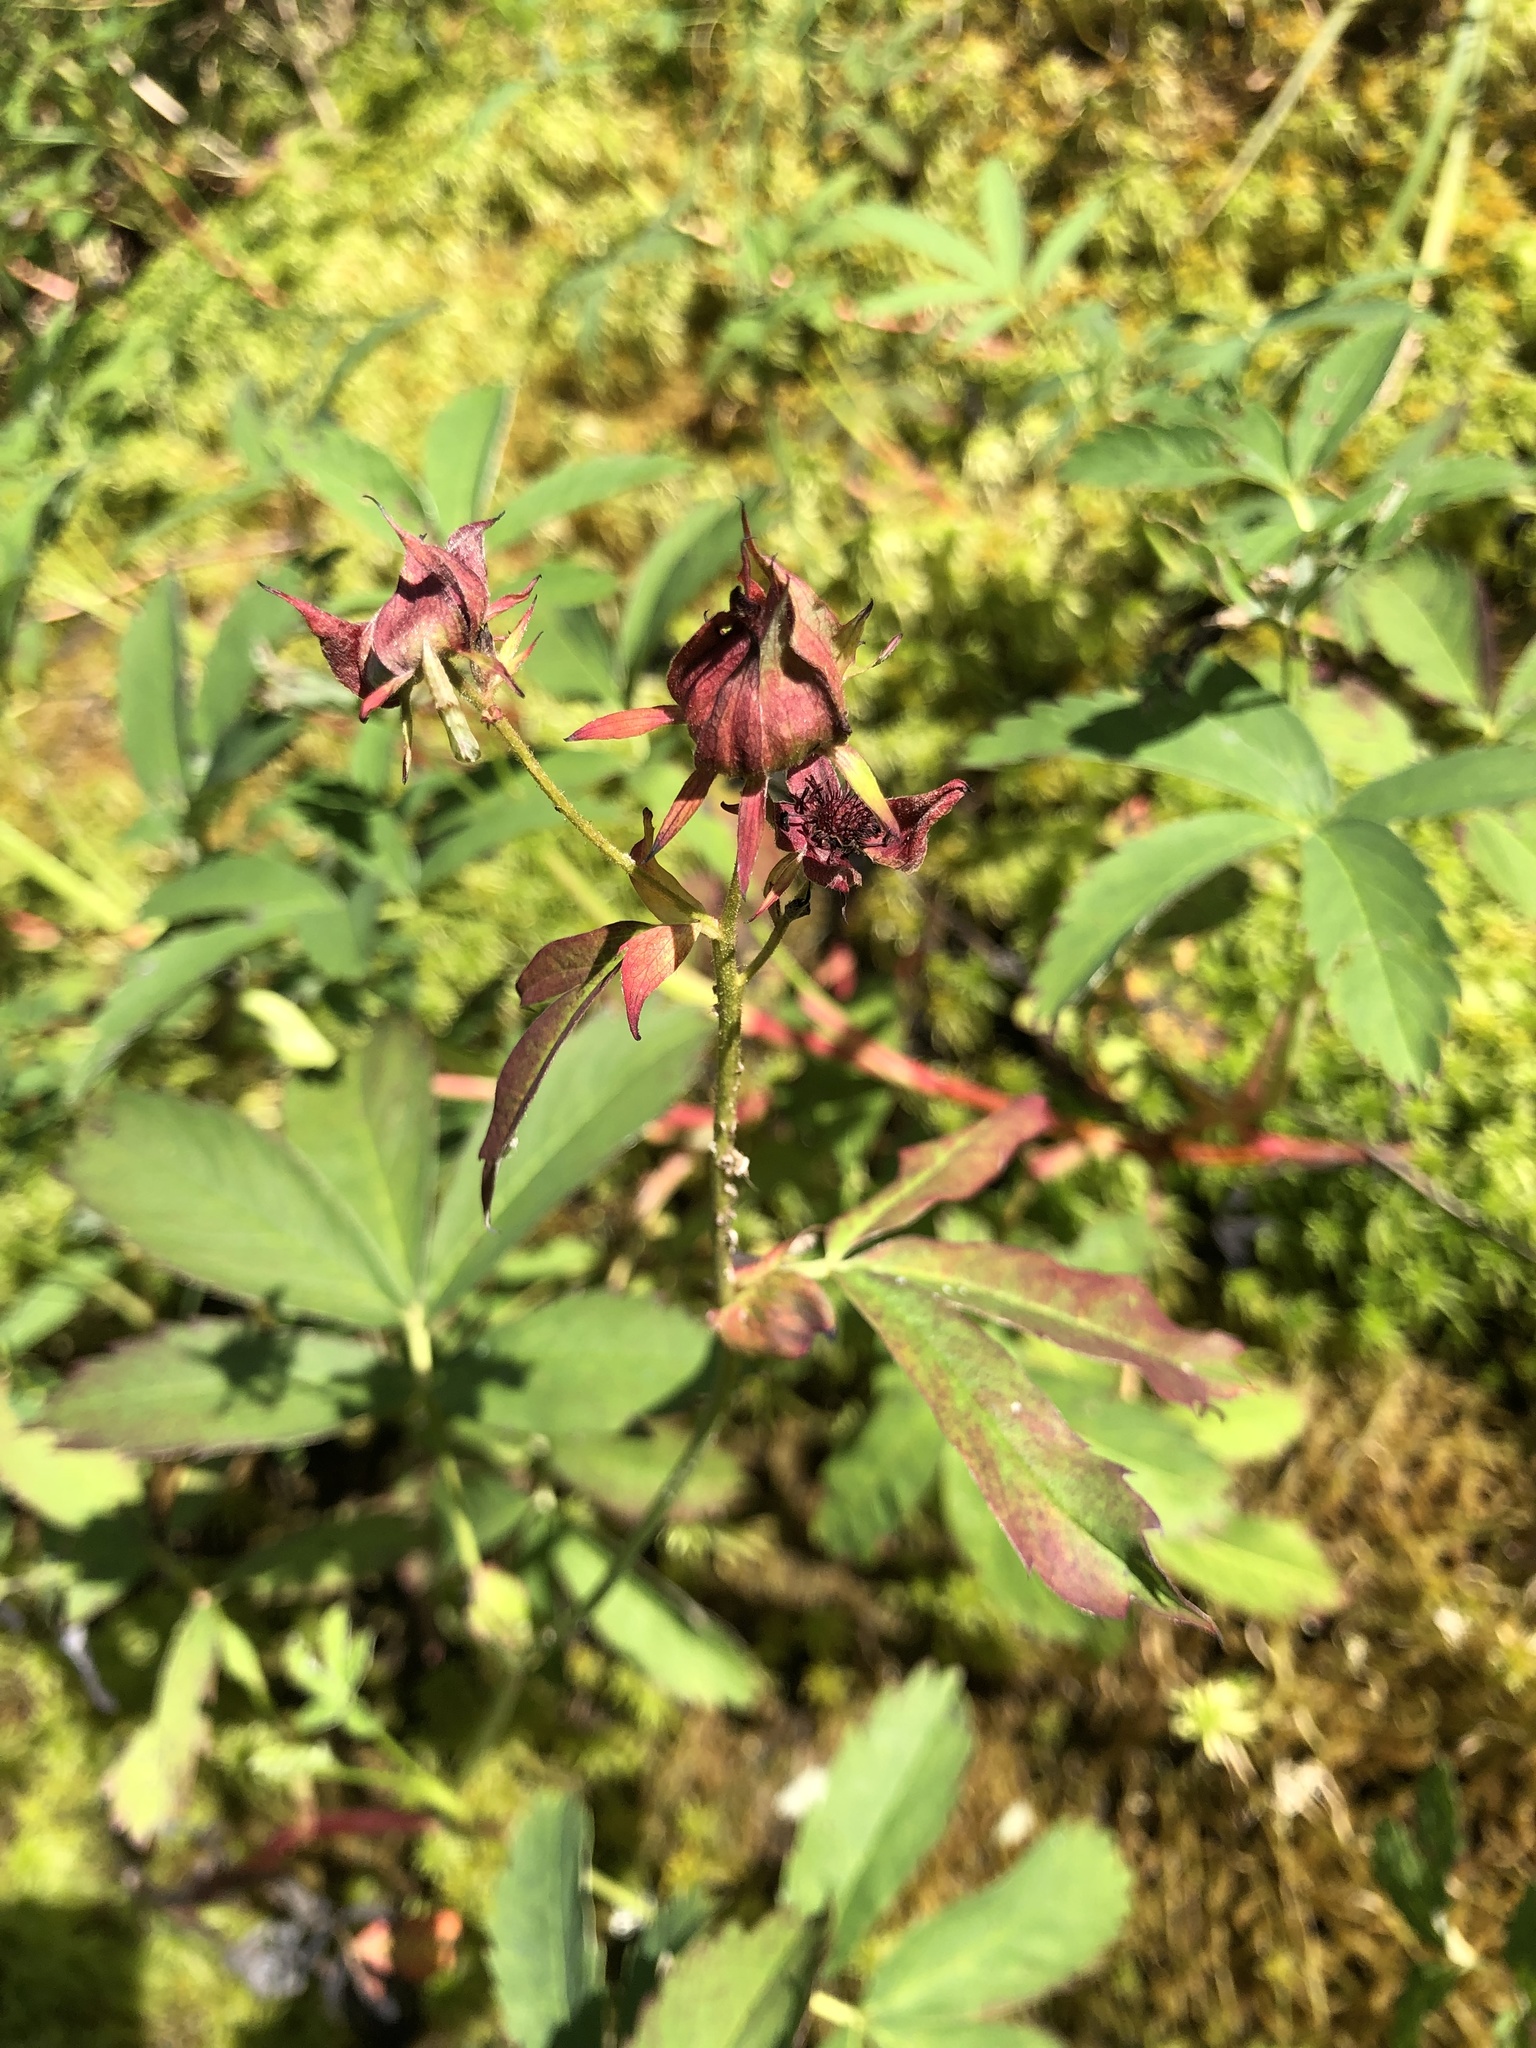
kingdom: Plantae
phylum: Tracheophyta
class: Magnoliopsida
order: Rosales
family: Rosaceae
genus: Comarum
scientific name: Comarum palustre
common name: Marsh cinquefoil
